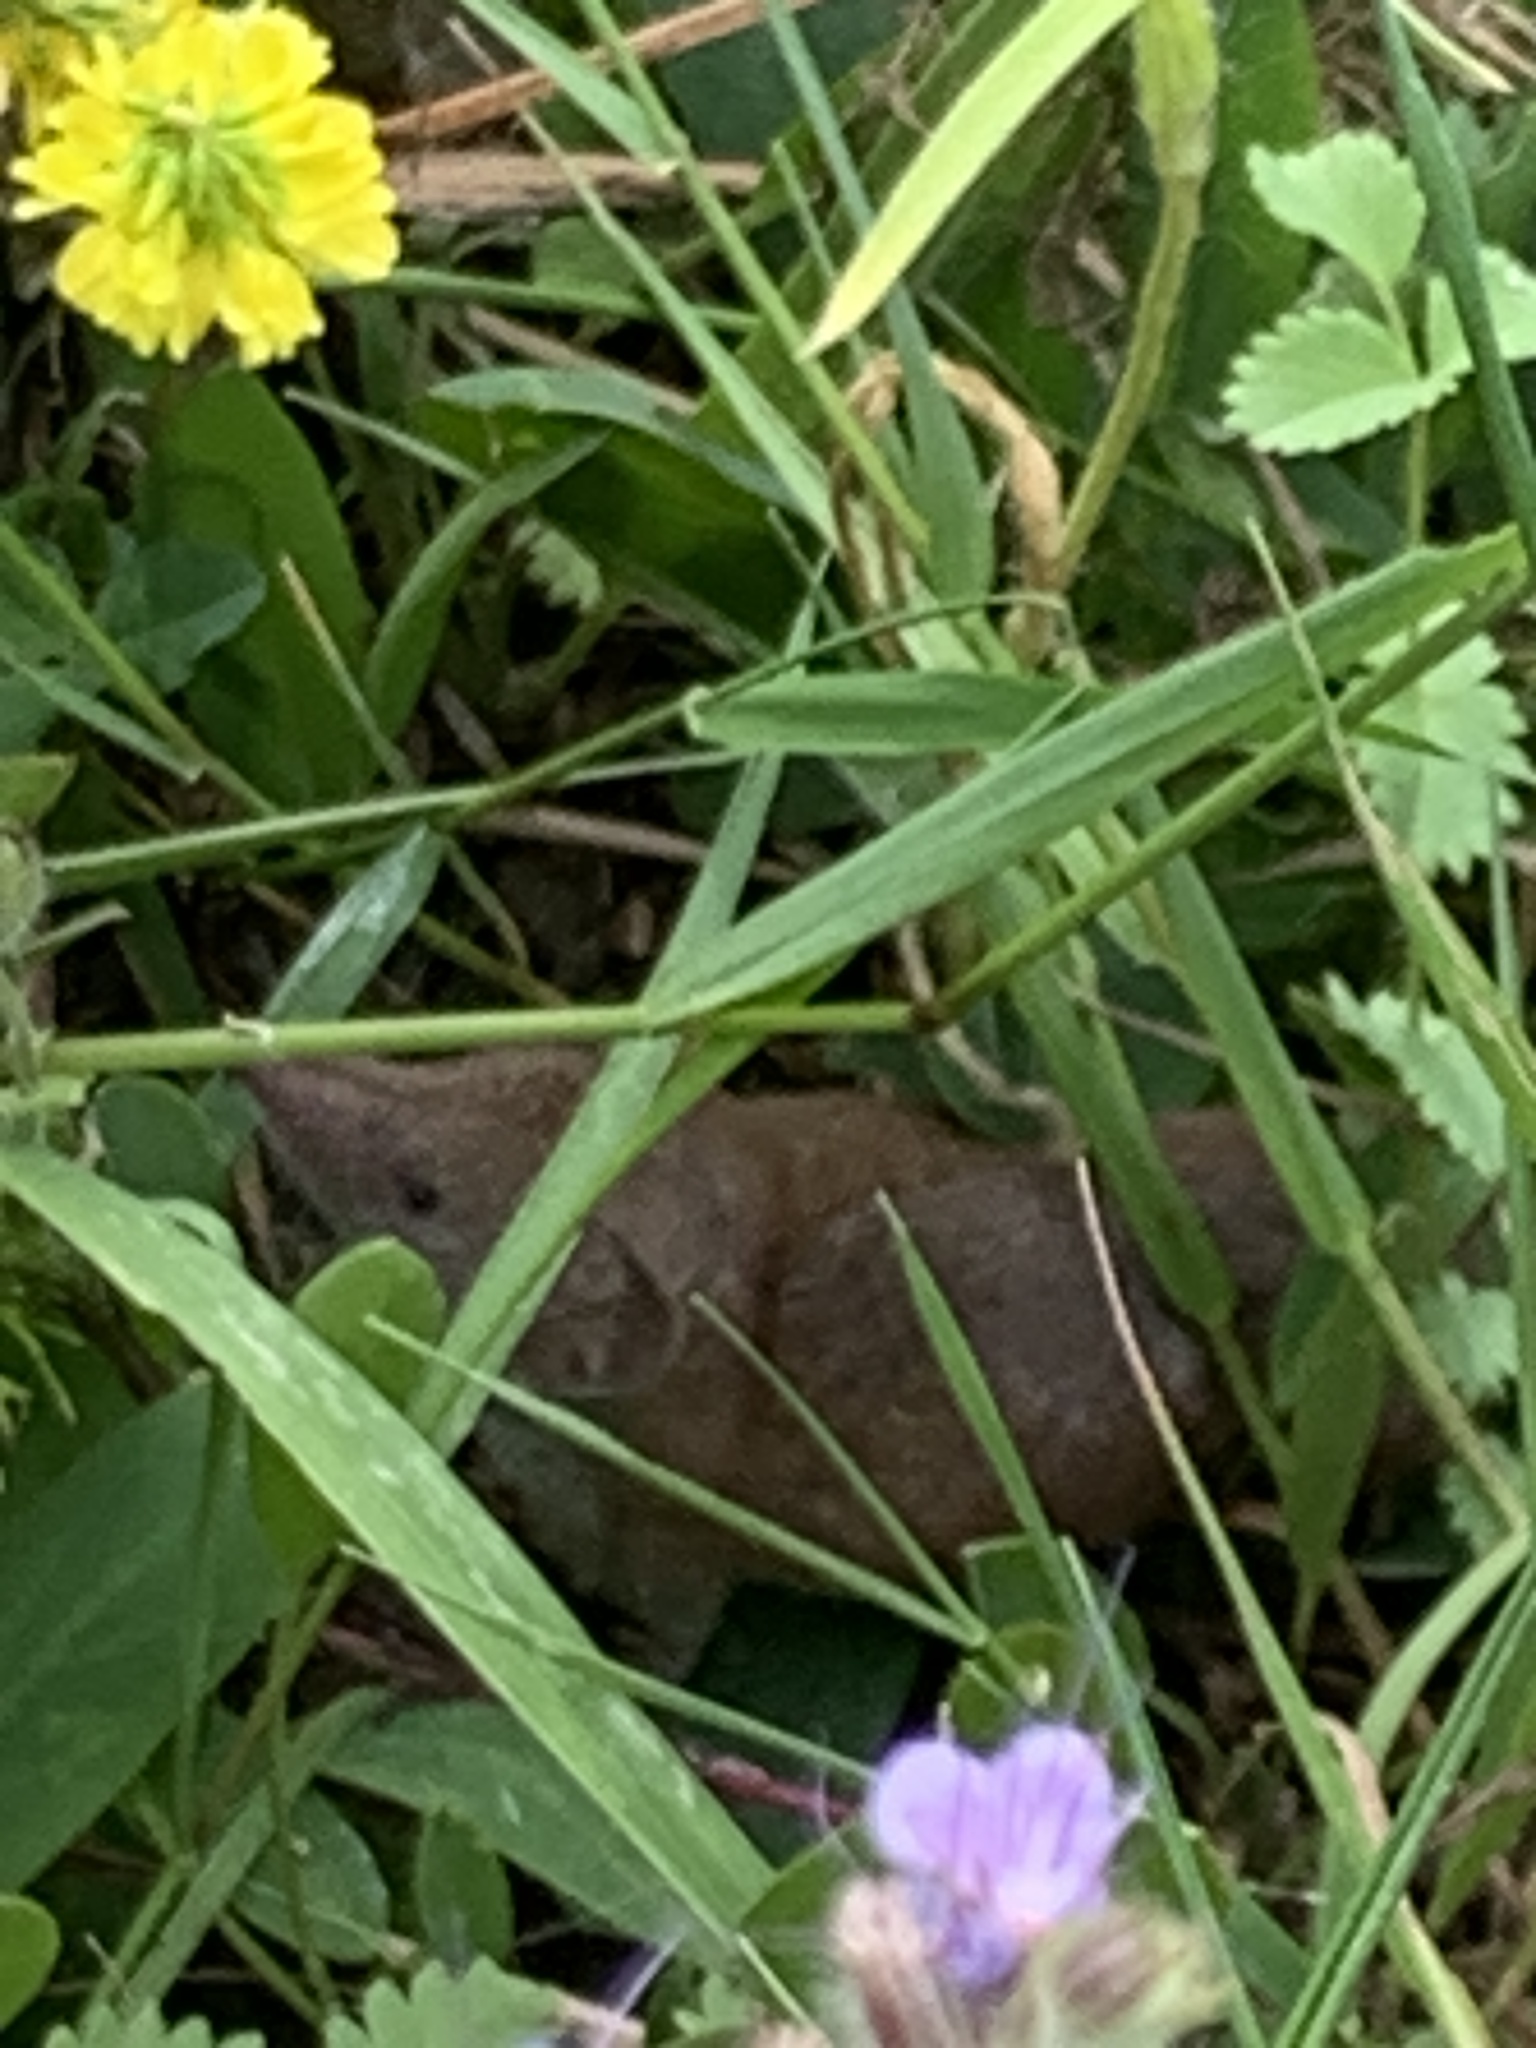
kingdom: Animalia
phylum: Chordata
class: Mammalia
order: Soricomorpha
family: Soricidae
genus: Crocidura
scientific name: Crocidura russula
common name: Greater white-toothed shrew
